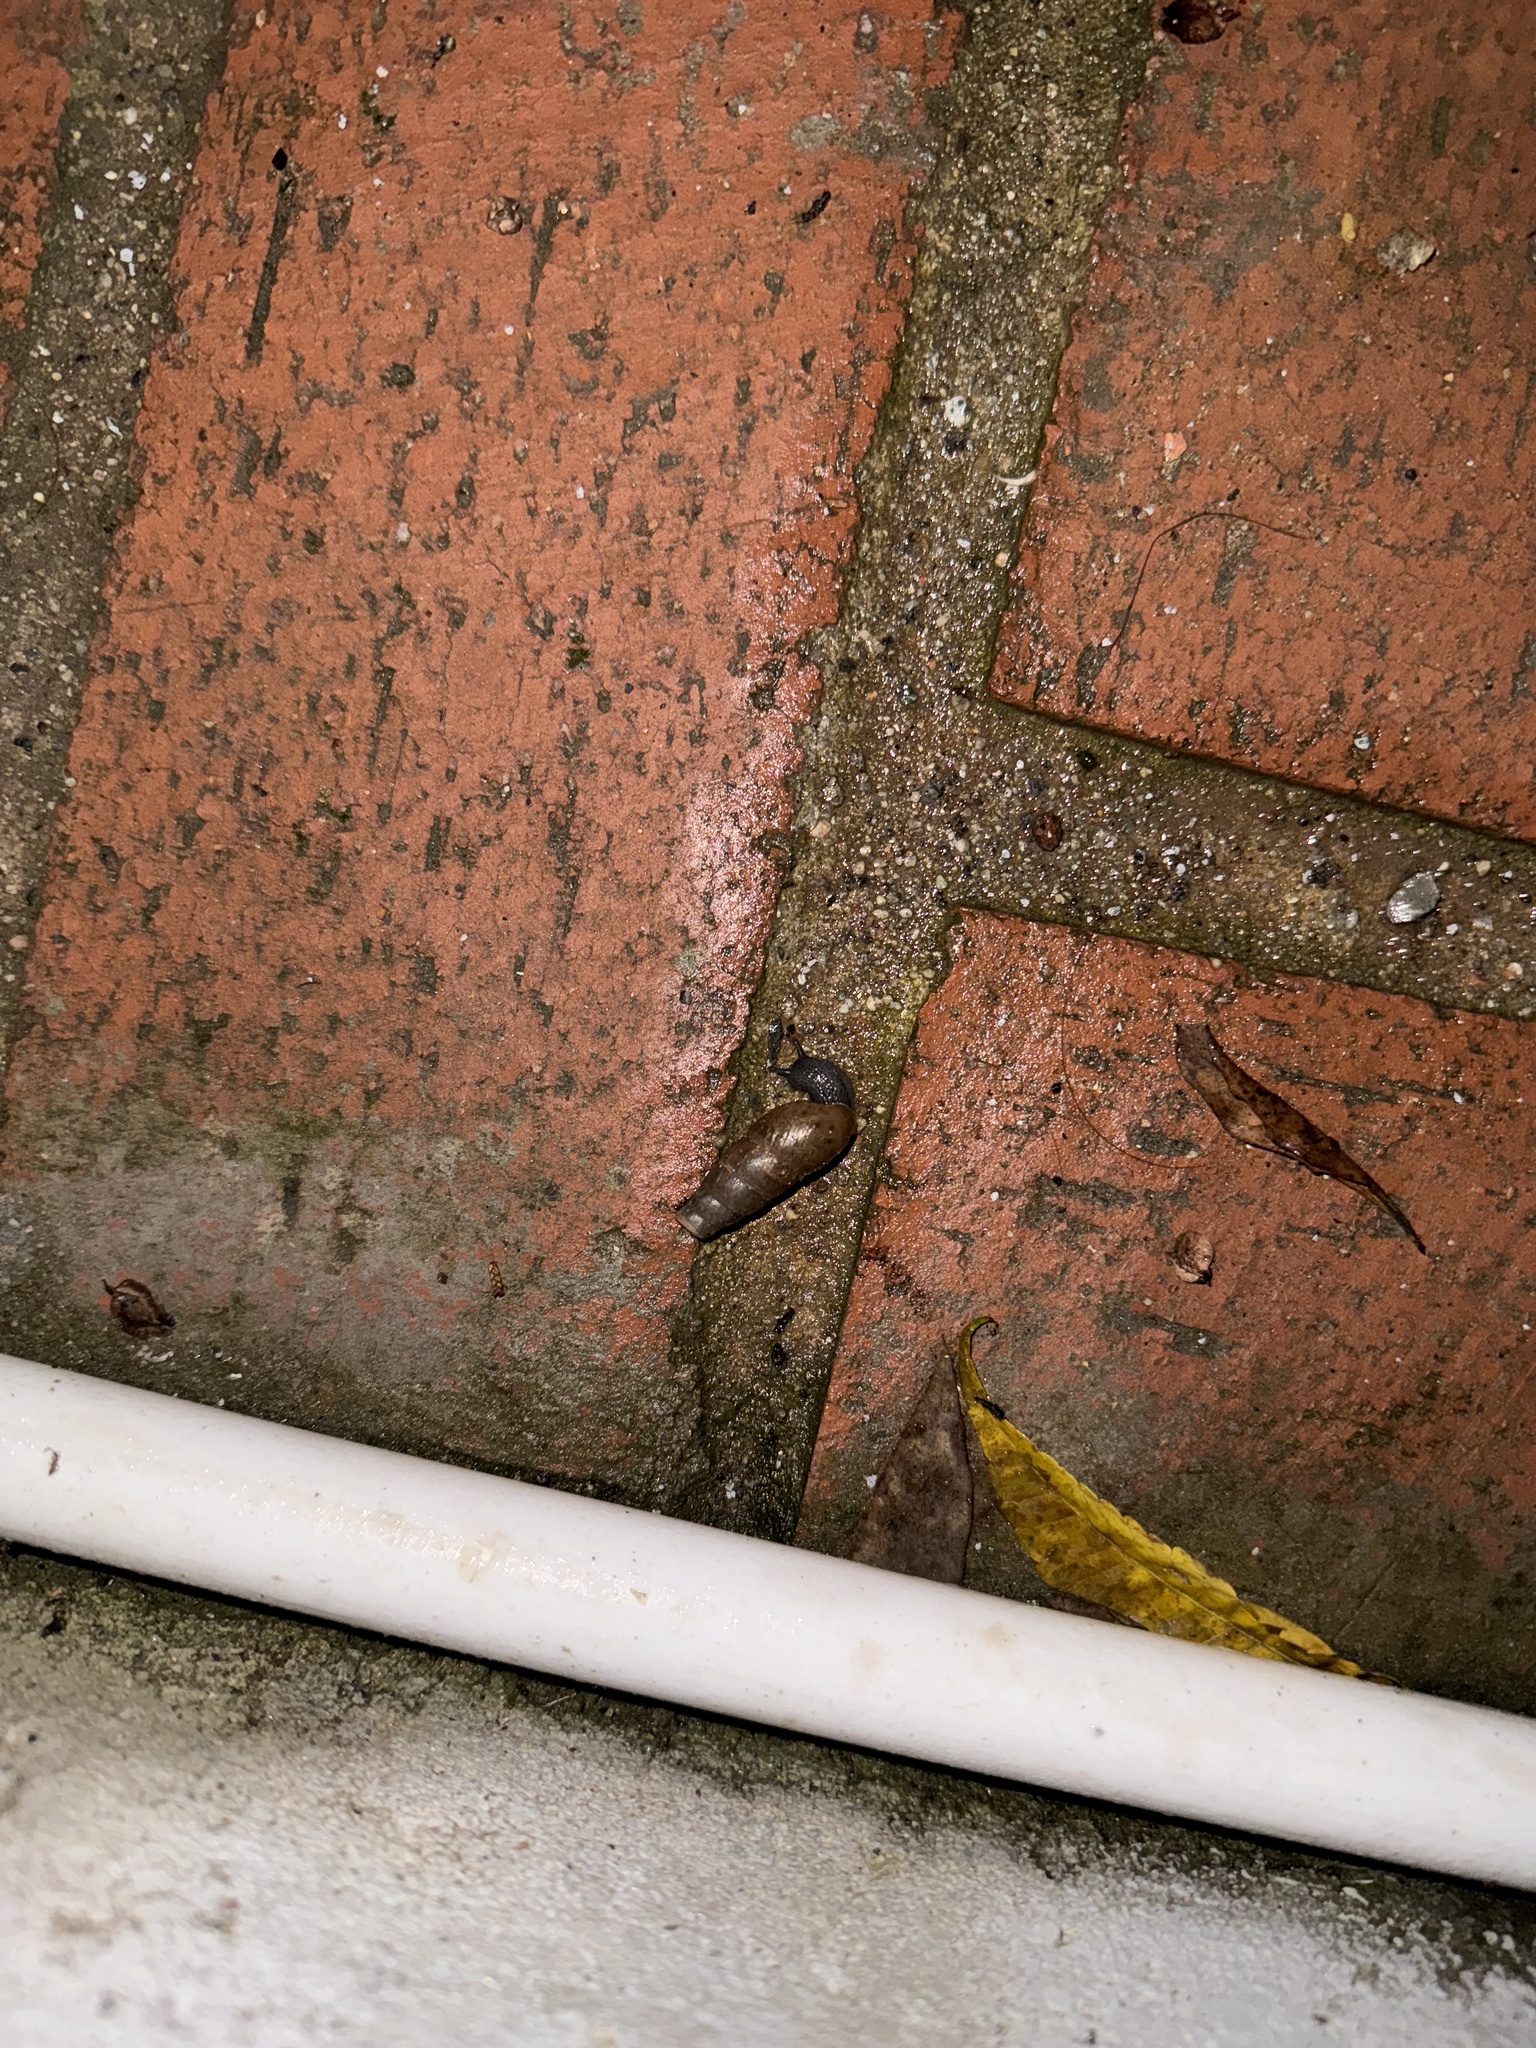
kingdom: Animalia
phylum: Mollusca
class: Gastropoda
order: Stylommatophora
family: Achatinidae
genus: Rumina
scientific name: Rumina decollata
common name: Decollate snail
